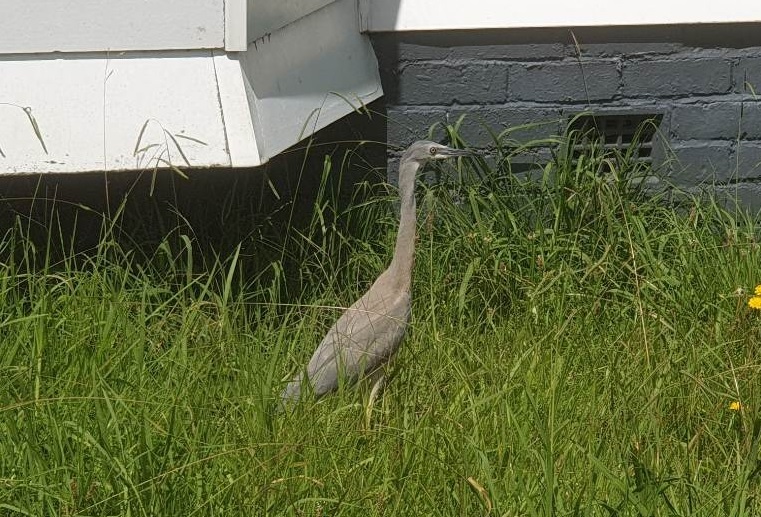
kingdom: Animalia
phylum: Chordata
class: Aves
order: Pelecaniformes
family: Ardeidae
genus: Egretta
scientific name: Egretta novaehollandiae
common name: White-faced heron
